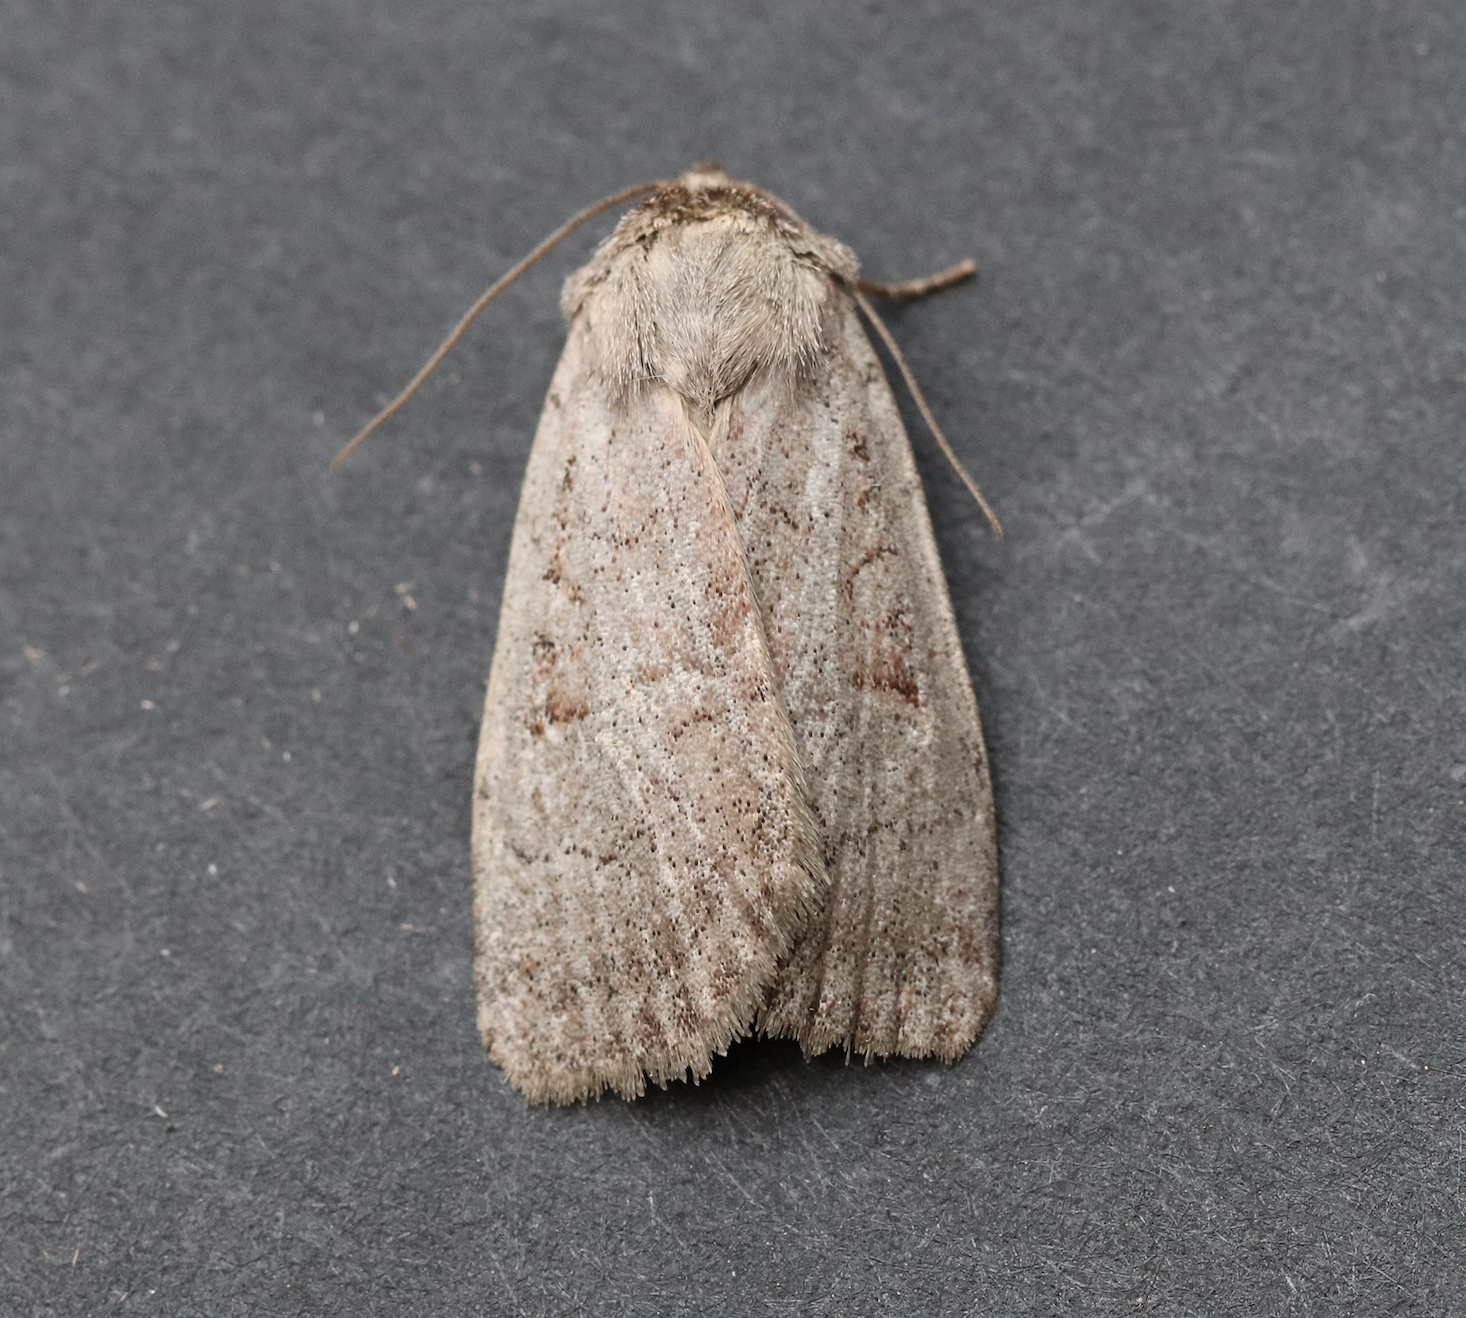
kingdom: Animalia
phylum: Arthropoda
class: Insecta
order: Lepidoptera
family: Noctuidae
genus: Protolampra
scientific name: Protolampra rufipectus
